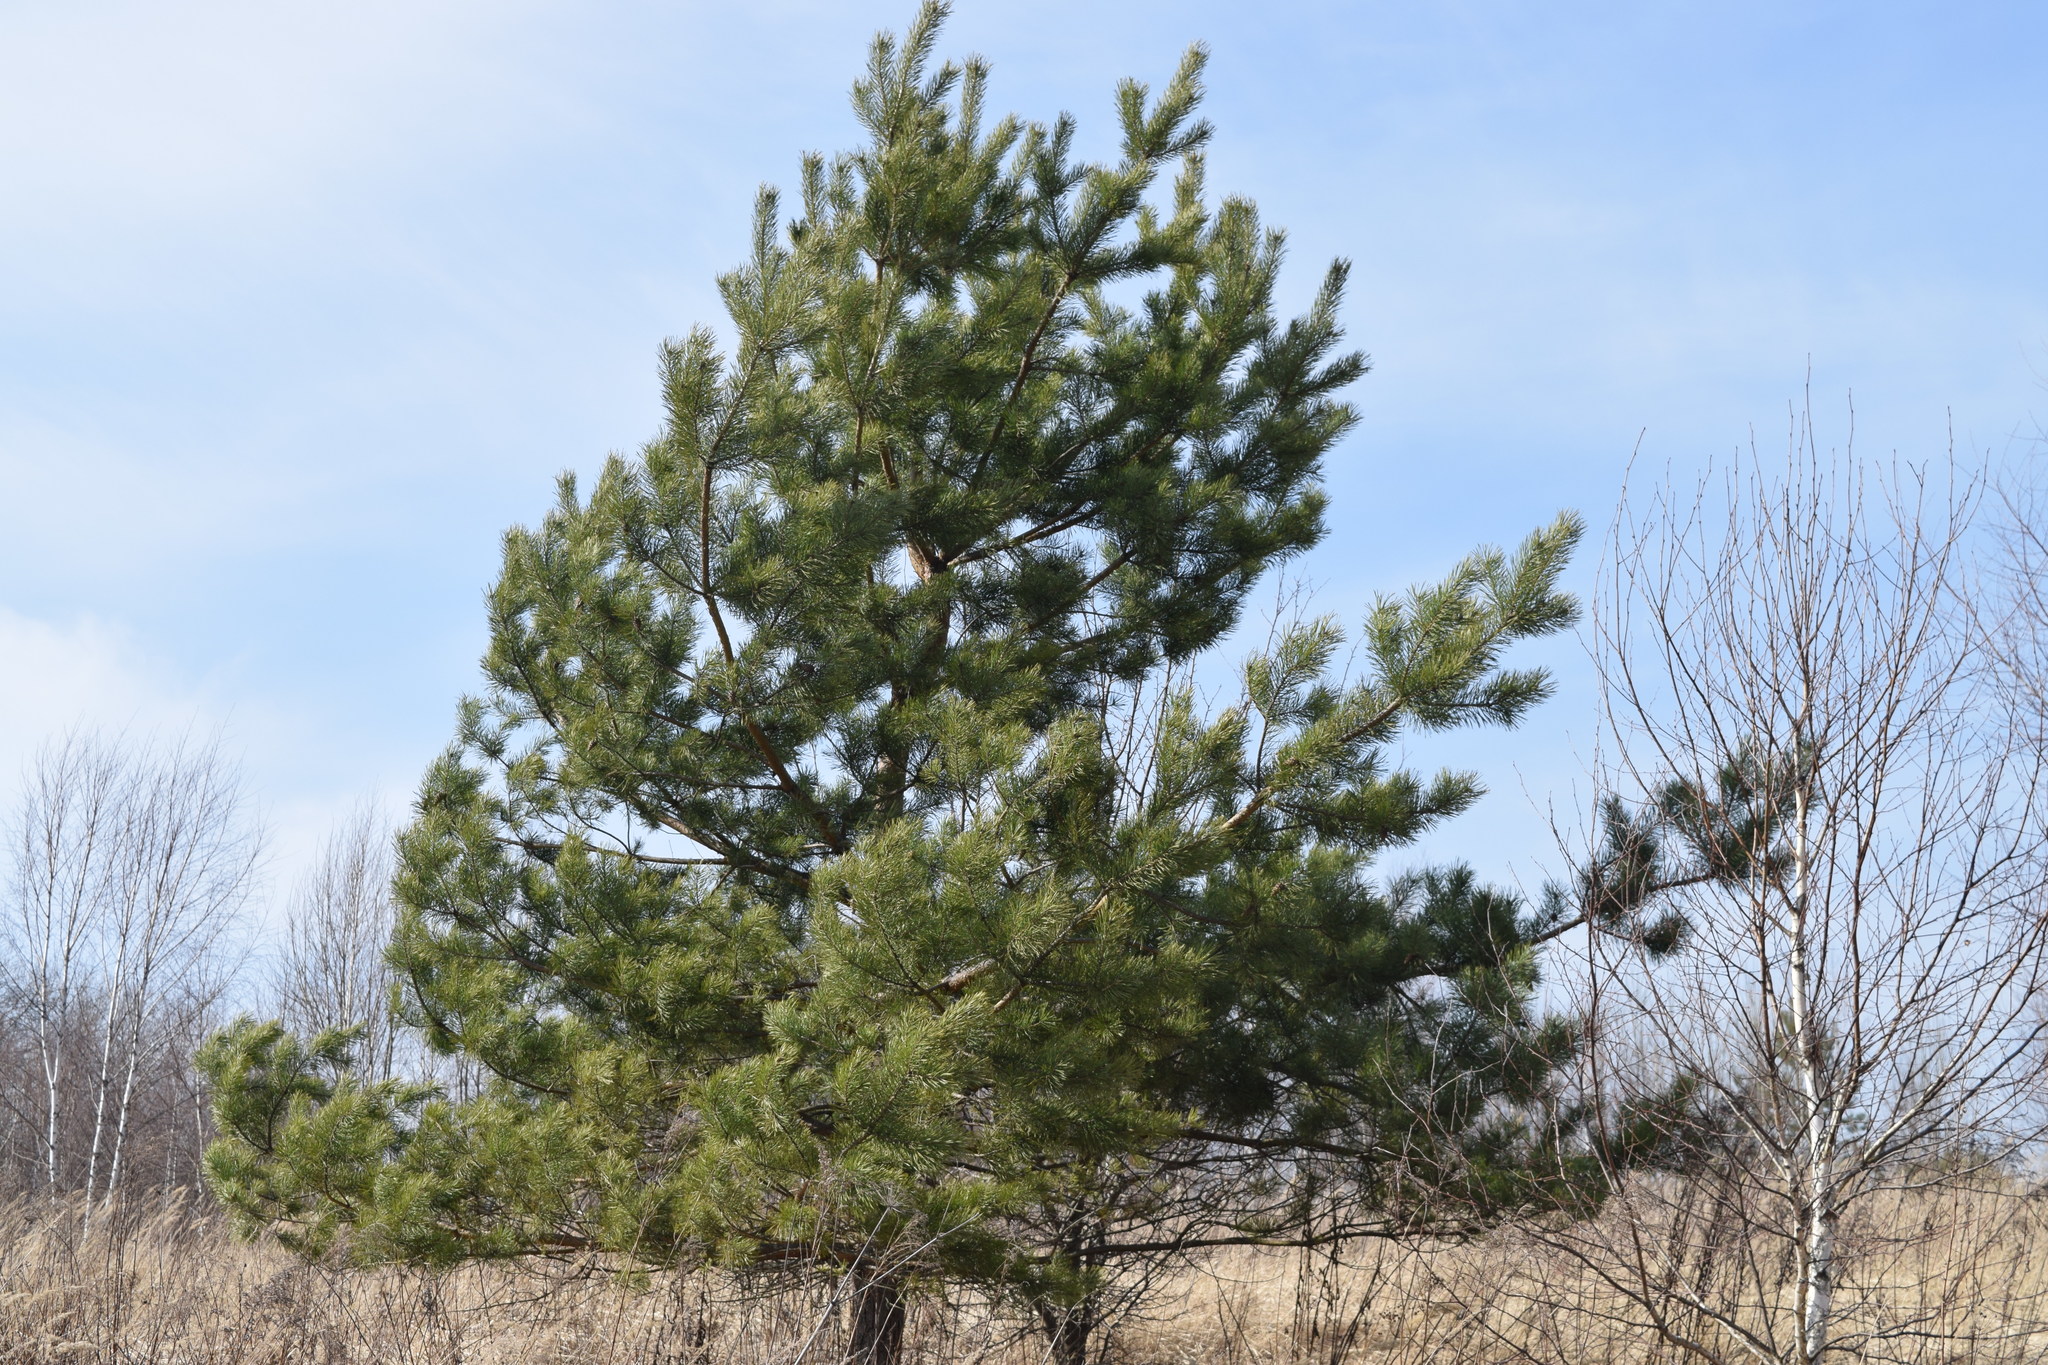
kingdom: Plantae
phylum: Tracheophyta
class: Pinopsida
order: Pinales
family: Pinaceae
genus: Pinus
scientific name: Pinus sylvestris
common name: Scots pine
